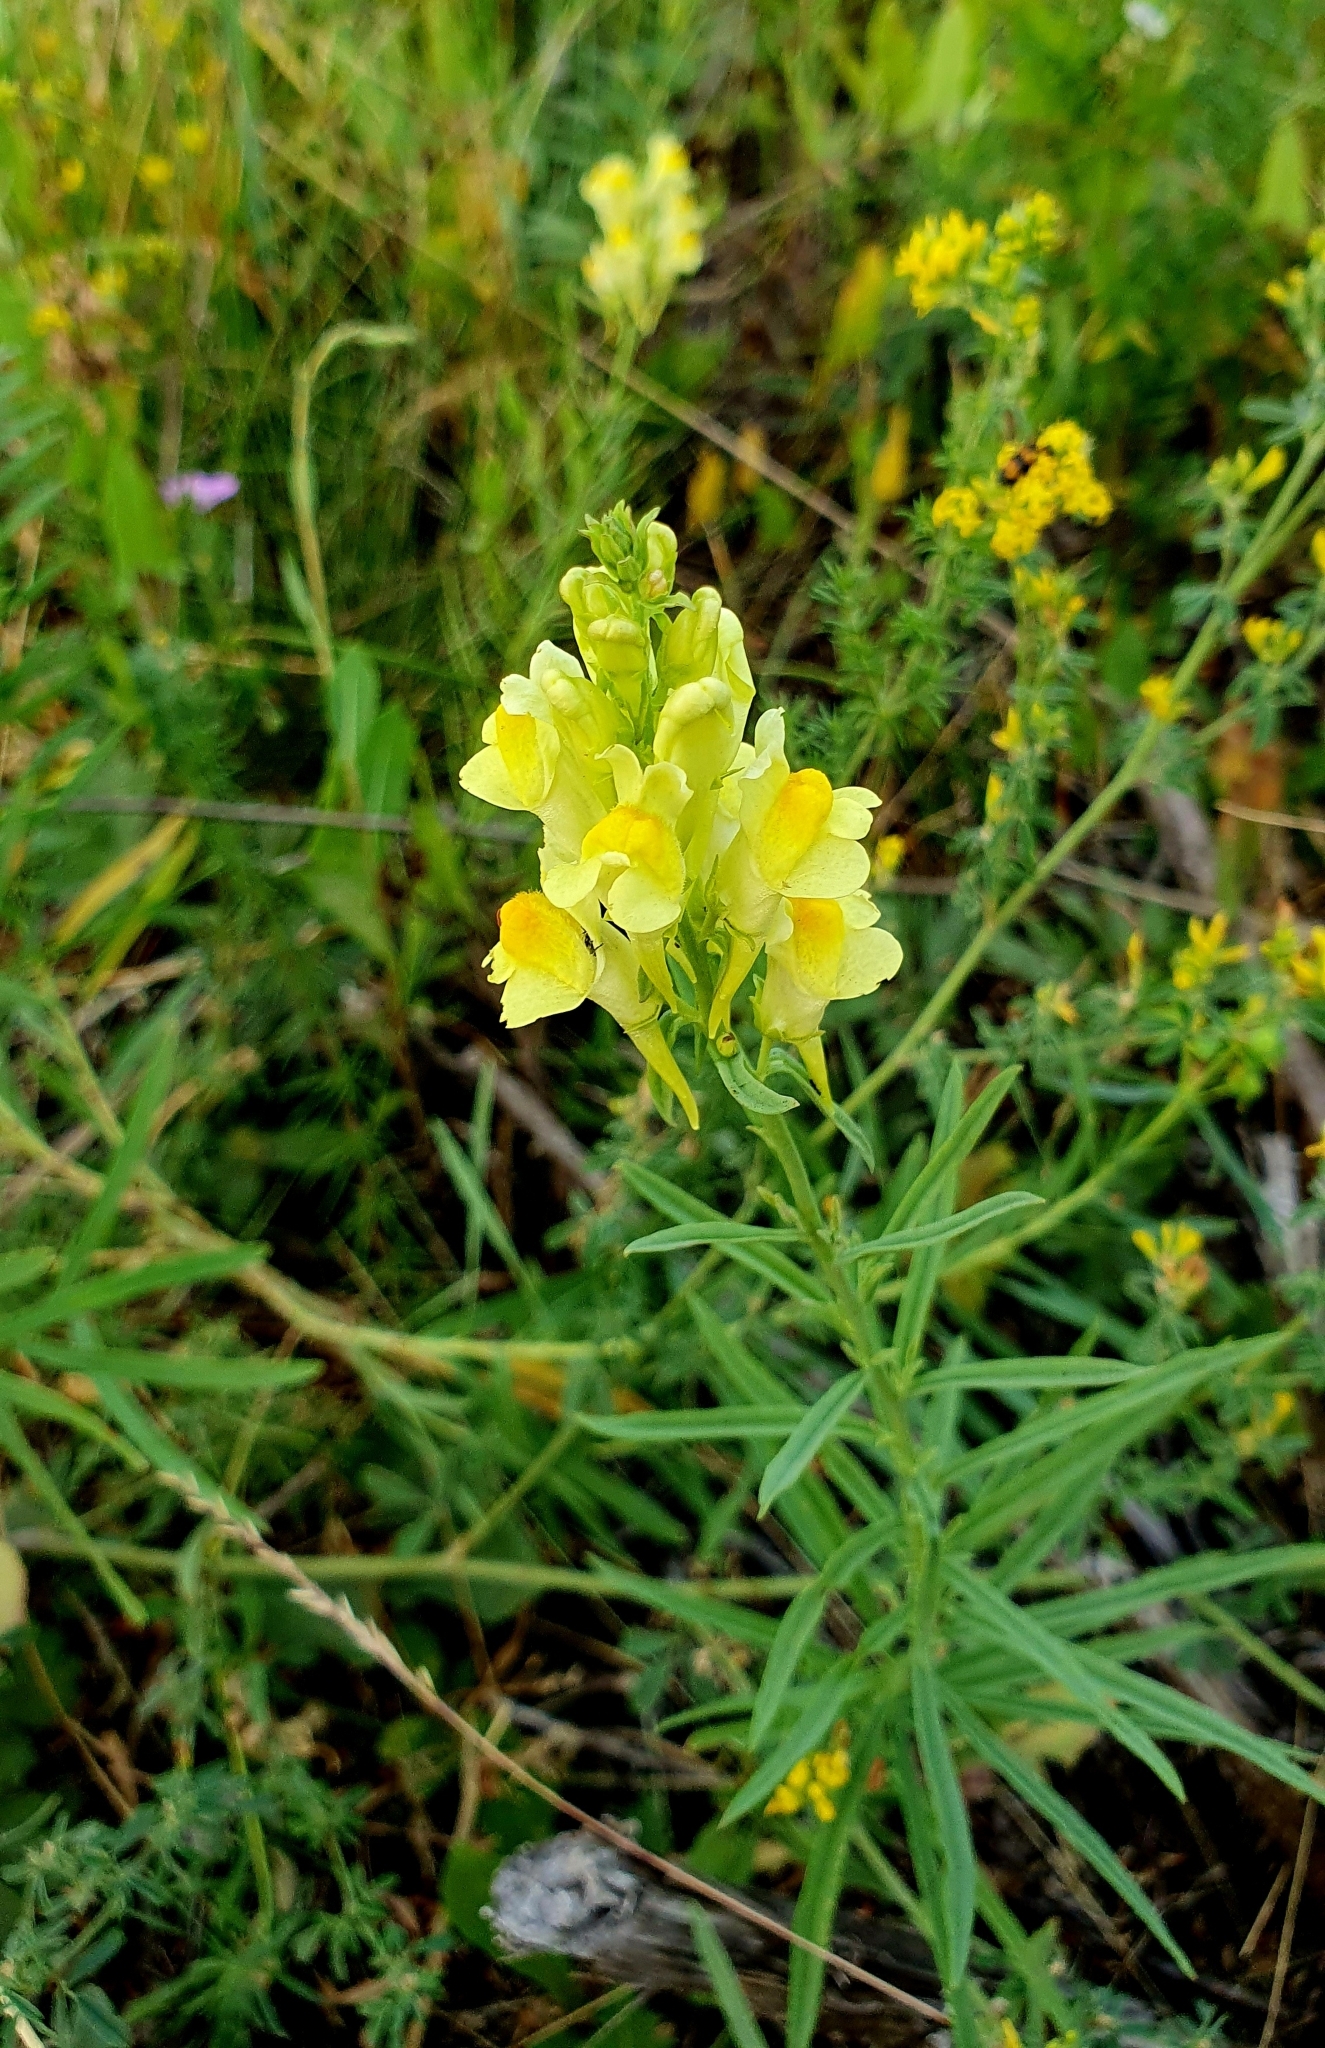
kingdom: Plantae
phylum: Tracheophyta
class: Magnoliopsida
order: Lamiales
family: Plantaginaceae
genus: Linaria
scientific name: Linaria vulgaris
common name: Butter and eggs
